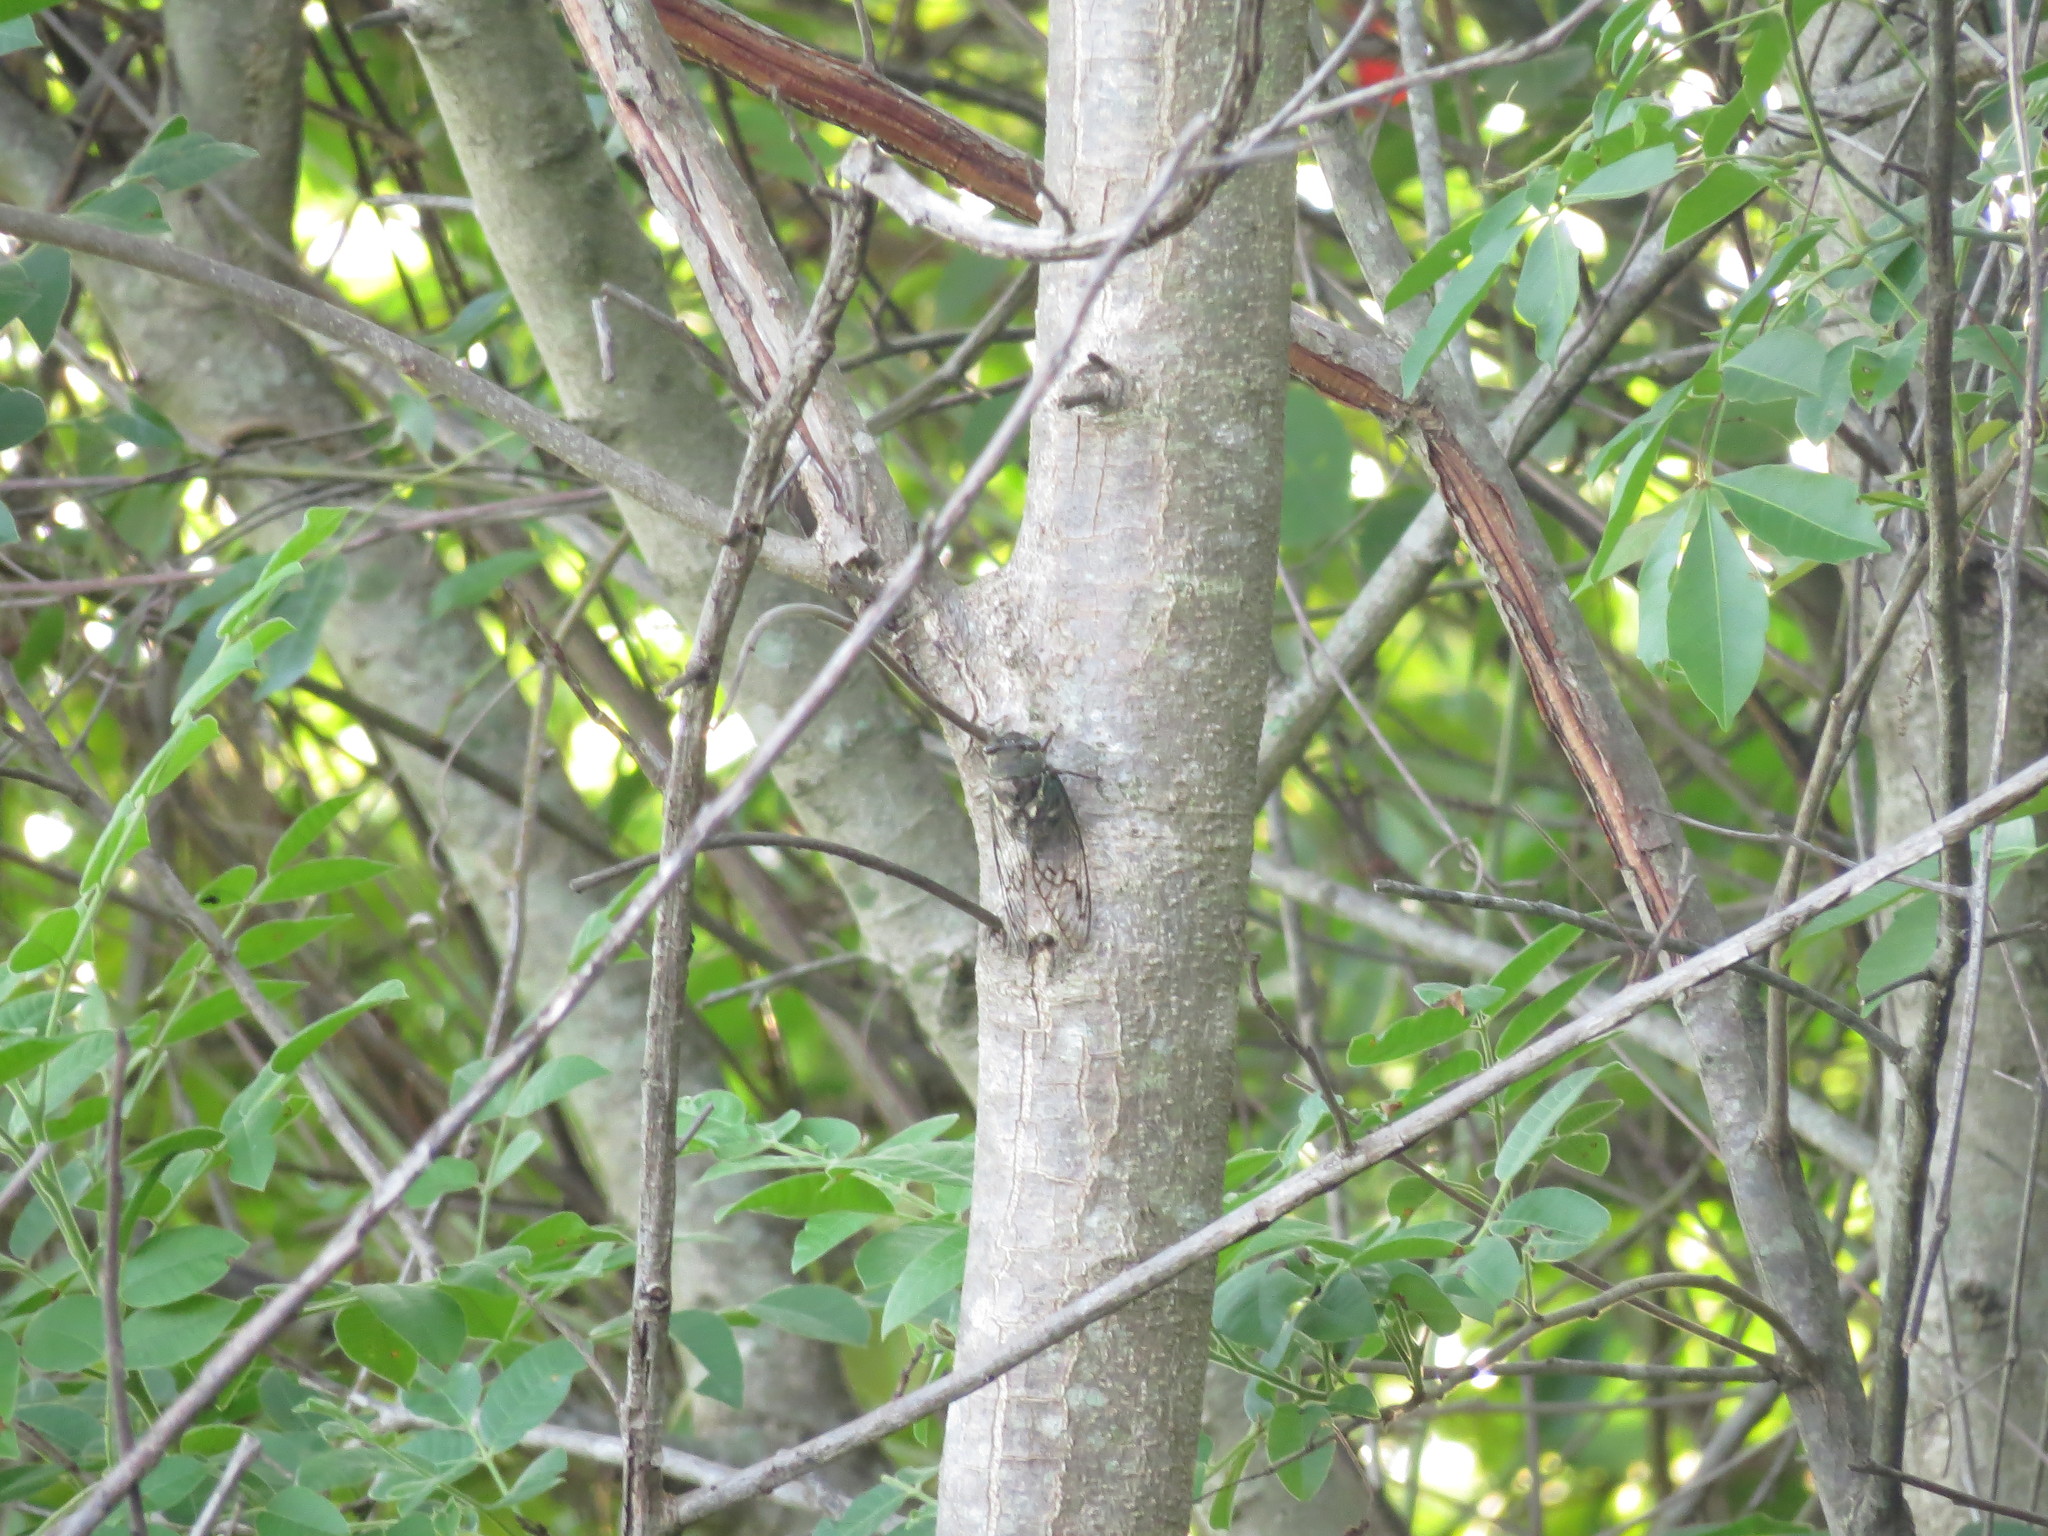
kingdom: Animalia
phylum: Arthropoda
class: Insecta
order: Hemiptera
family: Cicadidae
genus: Fidicina
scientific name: Fidicina toulgoeti
